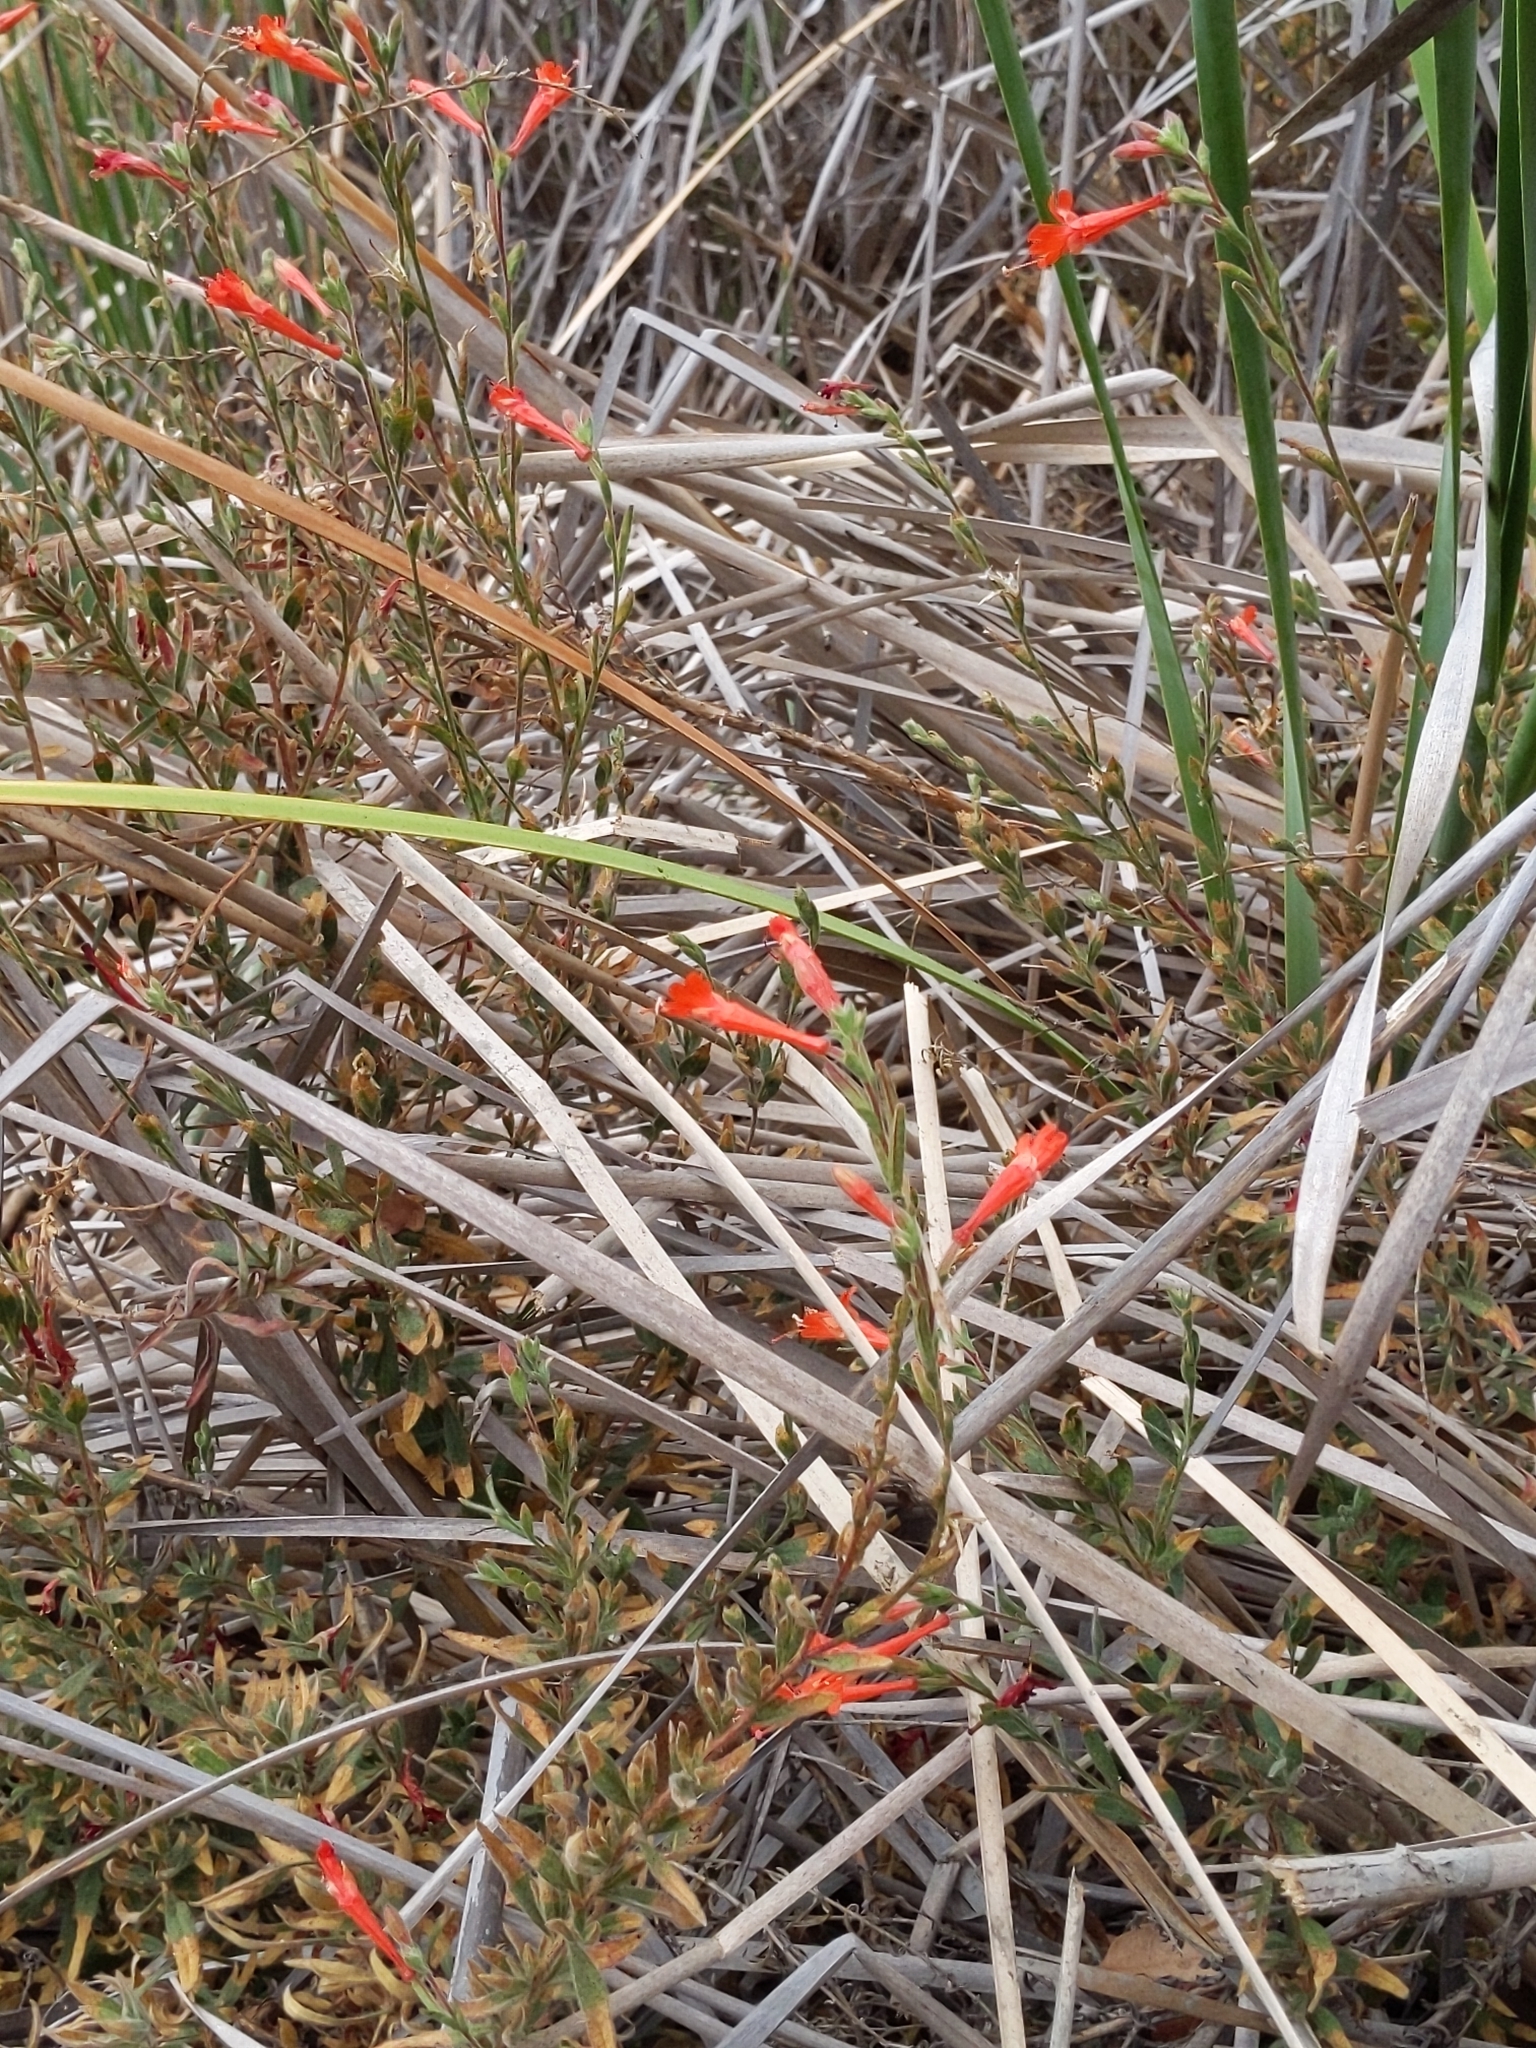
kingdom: Plantae
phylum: Tracheophyta
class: Magnoliopsida
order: Myrtales
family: Onagraceae
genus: Epilobium
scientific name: Epilobium canum
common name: California-fuchsia
